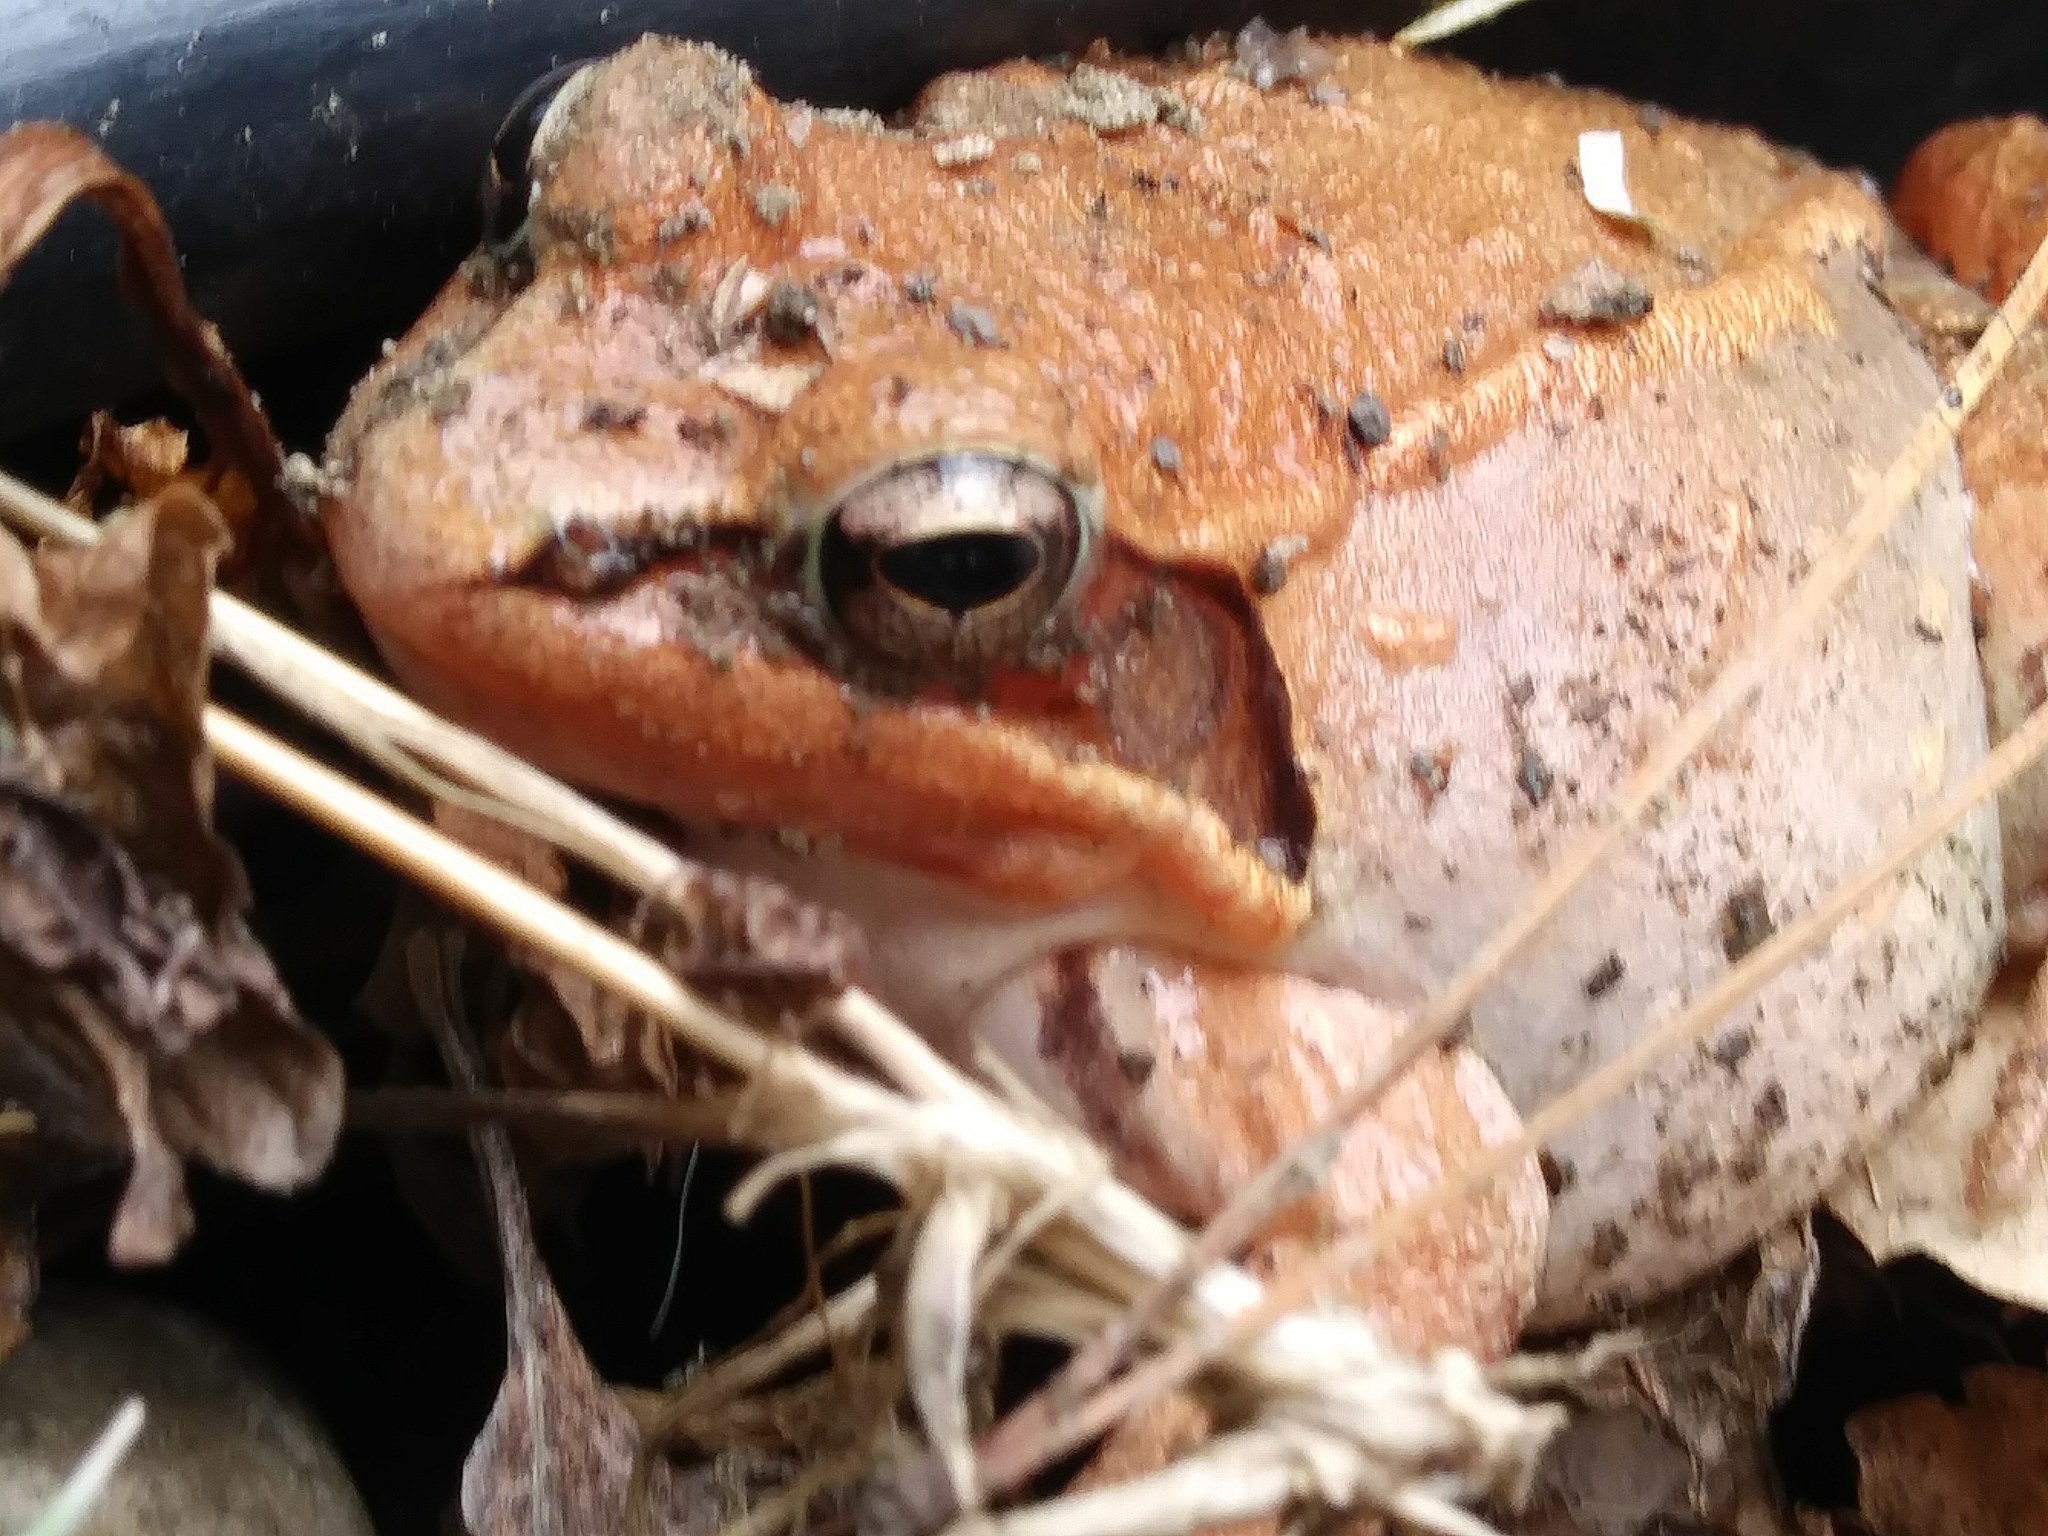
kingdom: Animalia
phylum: Chordata
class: Amphibia
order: Anura
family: Ranidae
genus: Lithobates
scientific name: Lithobates sylvaticus
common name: Wood frog
